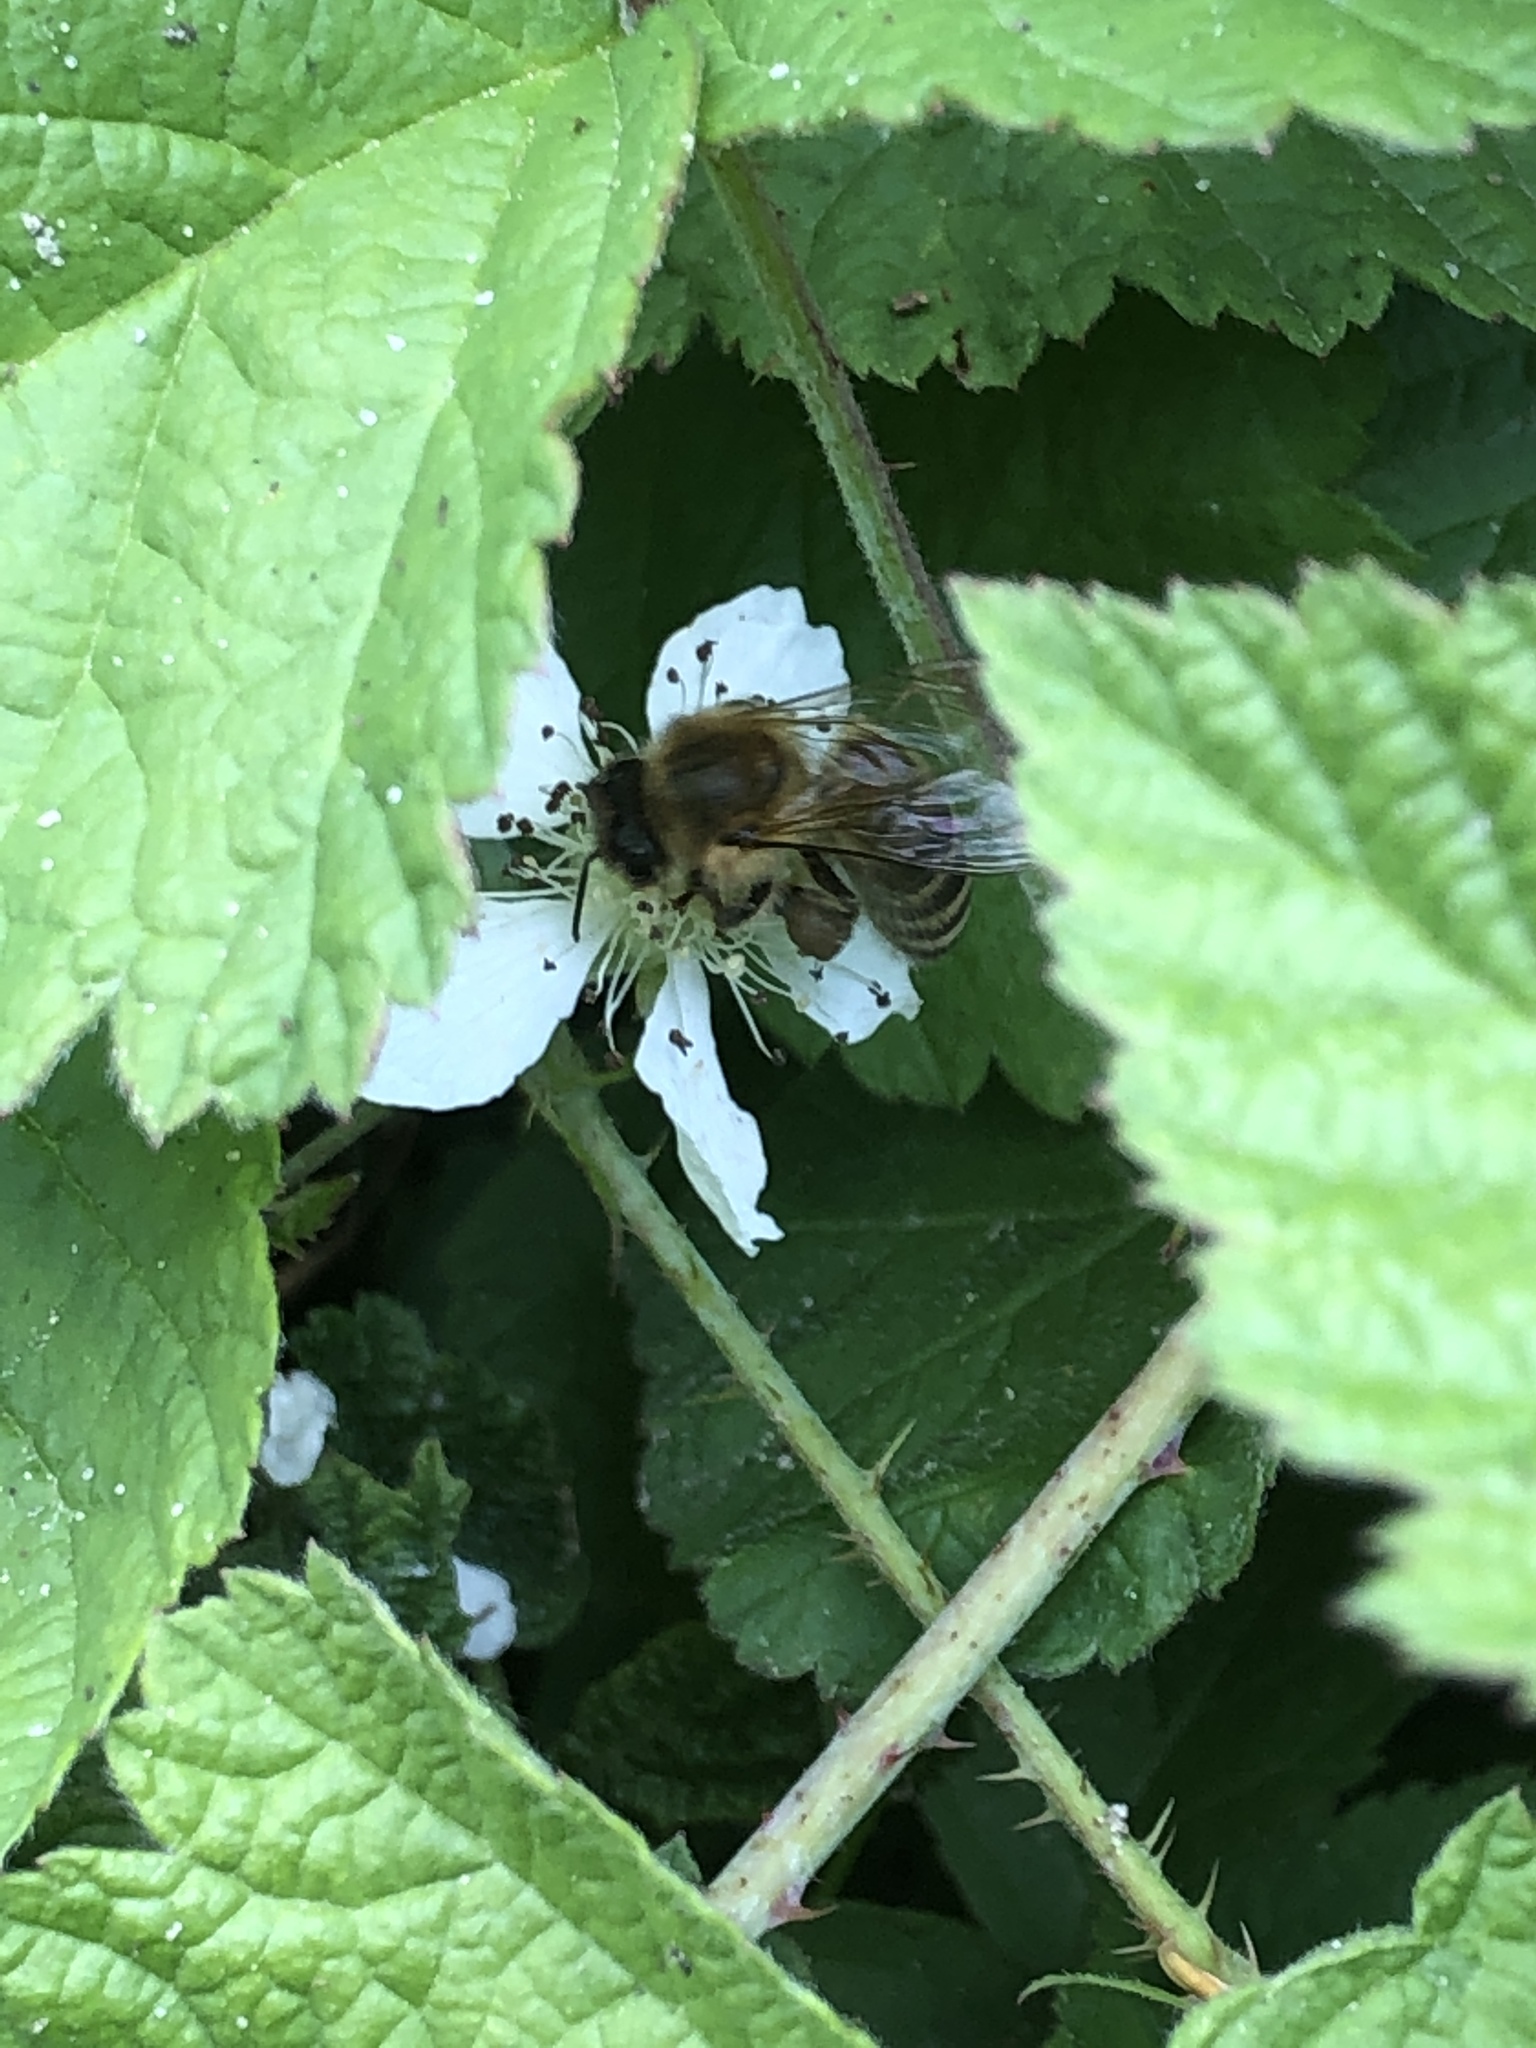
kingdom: Animalia
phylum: Arthropoda
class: Insecta
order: Hymenoptera
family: Apidae
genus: Apis
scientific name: Apis mellifera
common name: Honey bee
